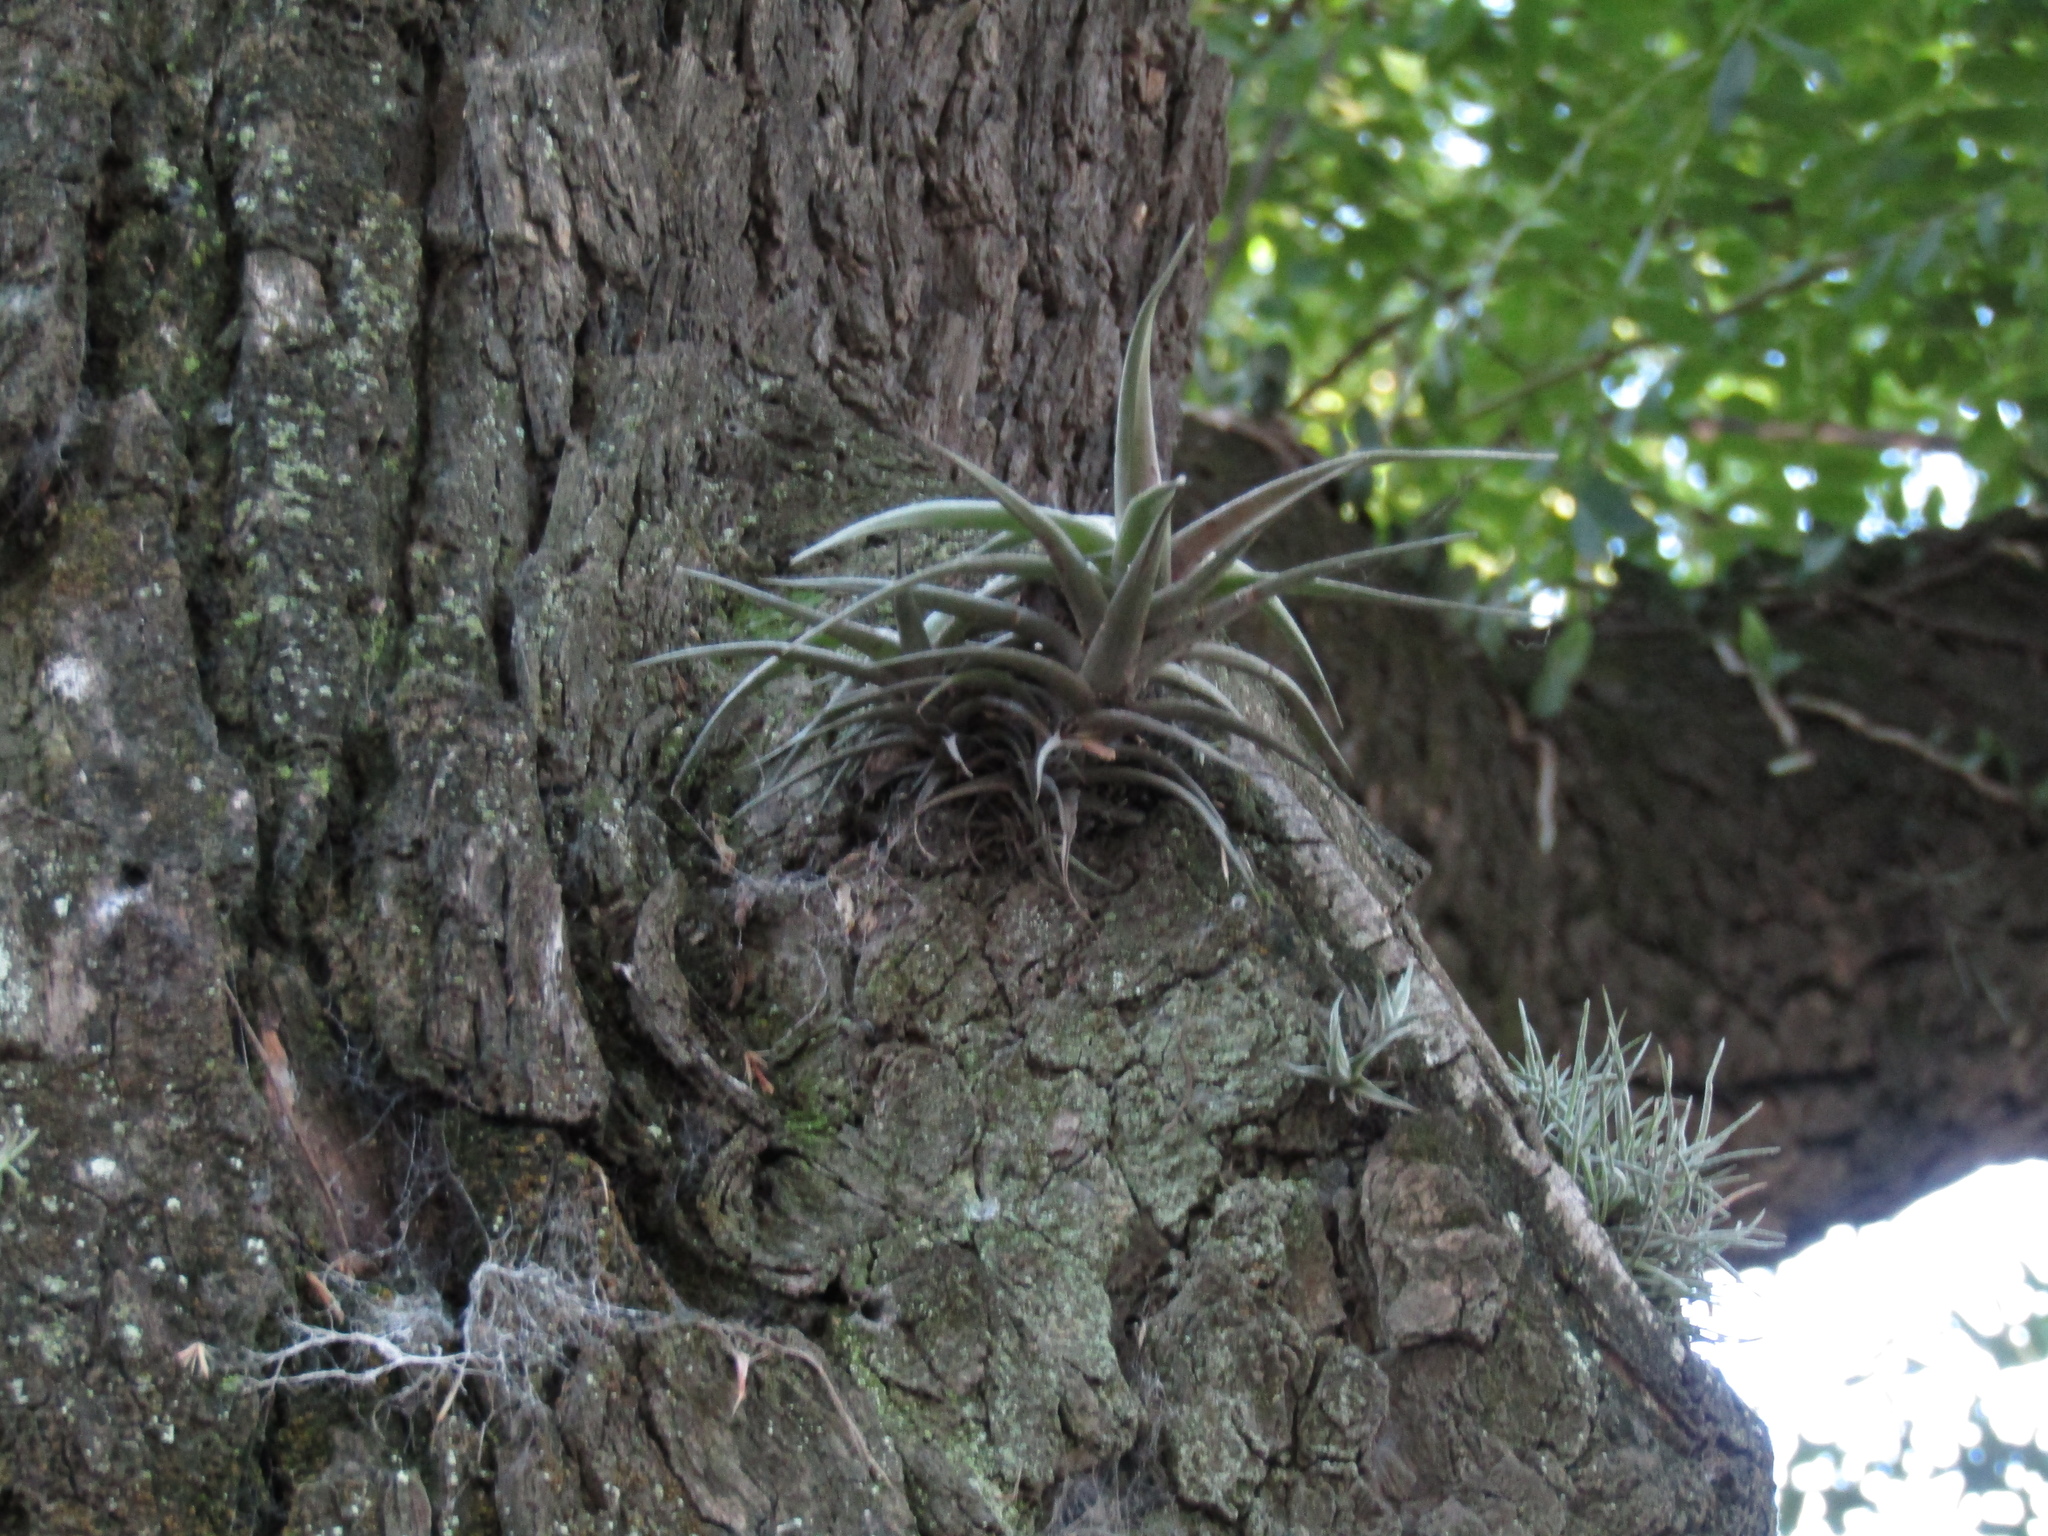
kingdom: Plantae
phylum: Tracheophyta
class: Liliopsida
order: Poales
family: Bromeliaceae
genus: Tillandsia
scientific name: Tillandsia aeranthos
